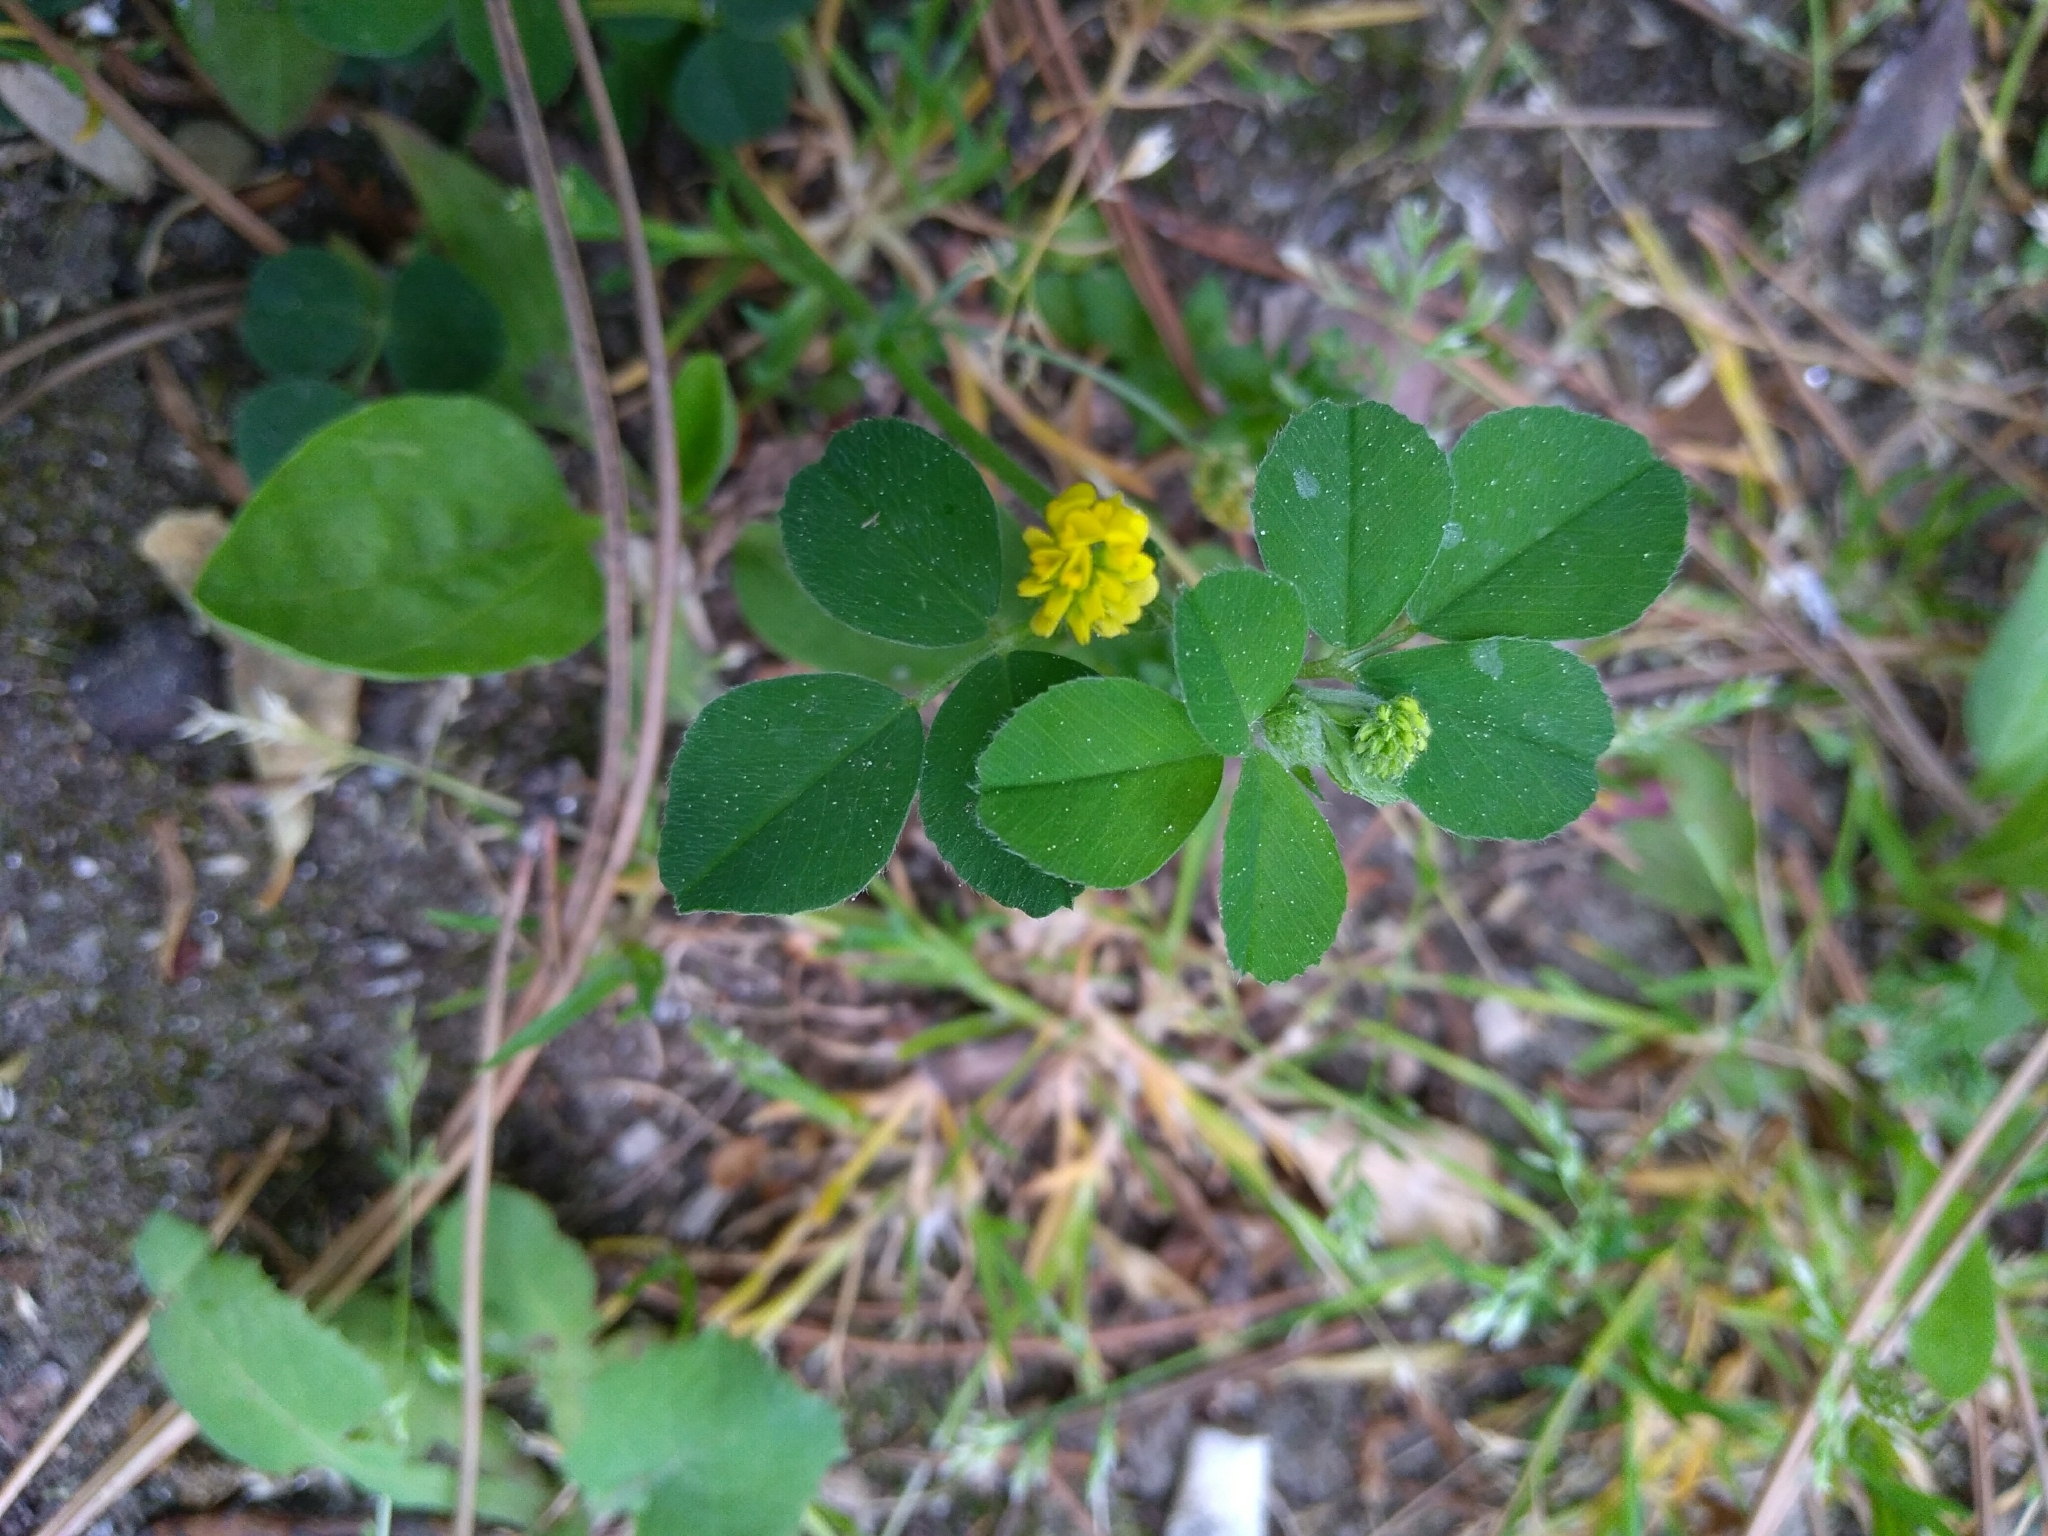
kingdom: Plantae
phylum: Tracheophyta
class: Magnoliopsida
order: Fabales
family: Fabaceae
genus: Medicago
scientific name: Medicago lupulina
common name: Black medick
